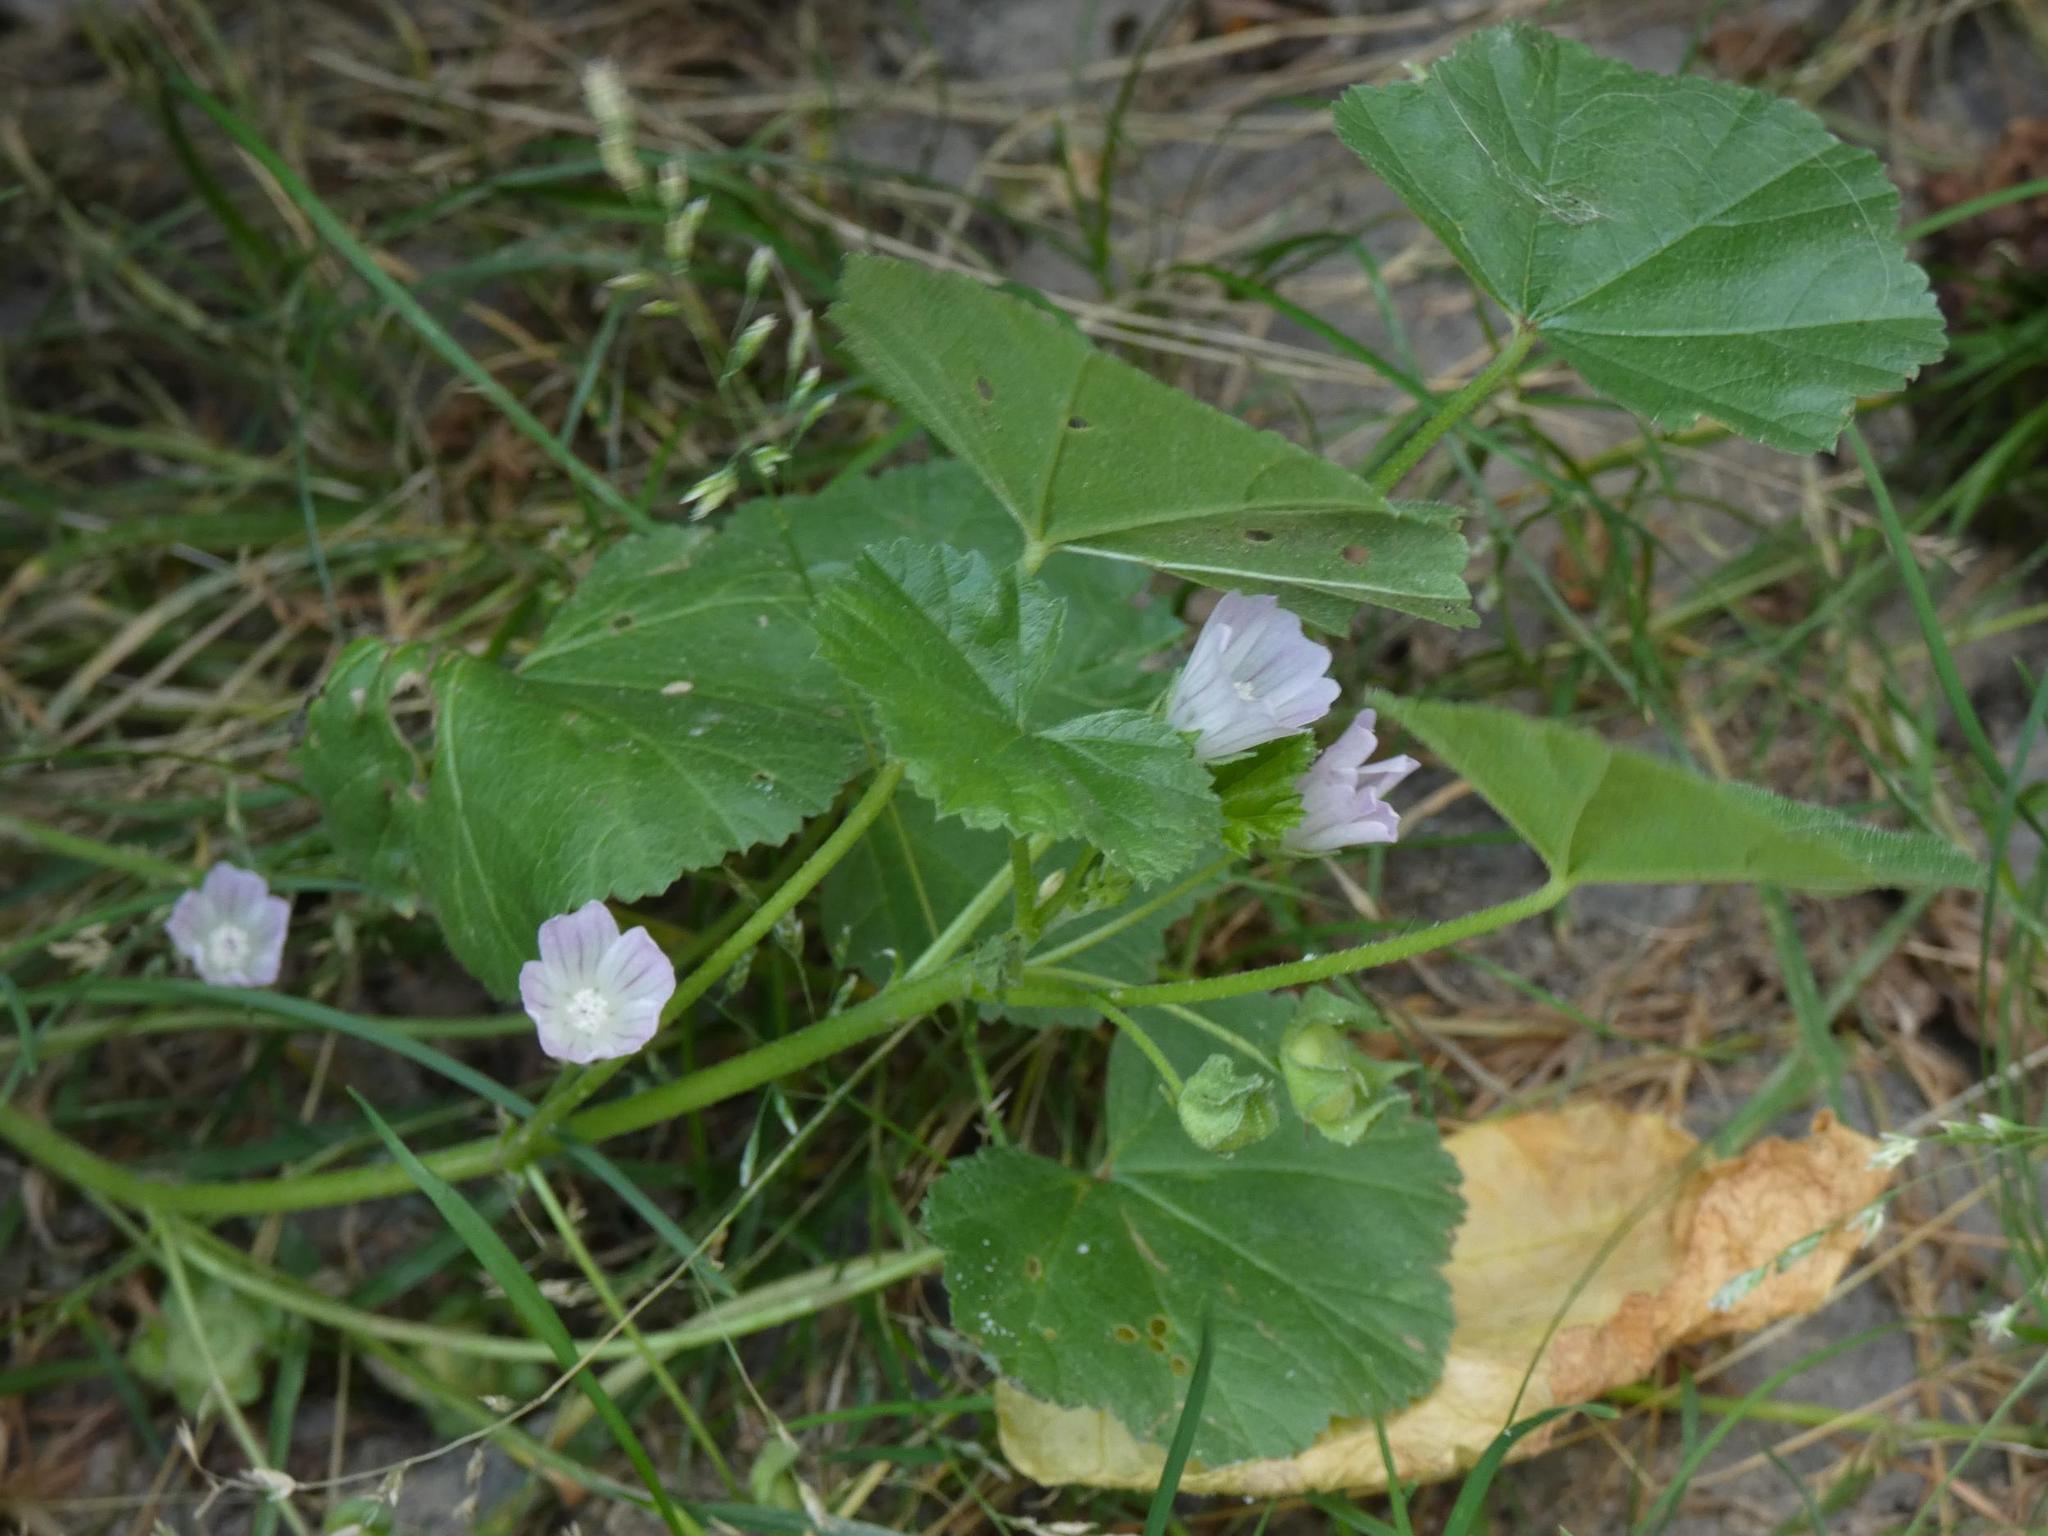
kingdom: Plantae
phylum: Tracheophyta
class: Magnoliopsida
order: Malvales
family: Malvaceae
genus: Malva
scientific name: Malva neglecta
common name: Common mallow
